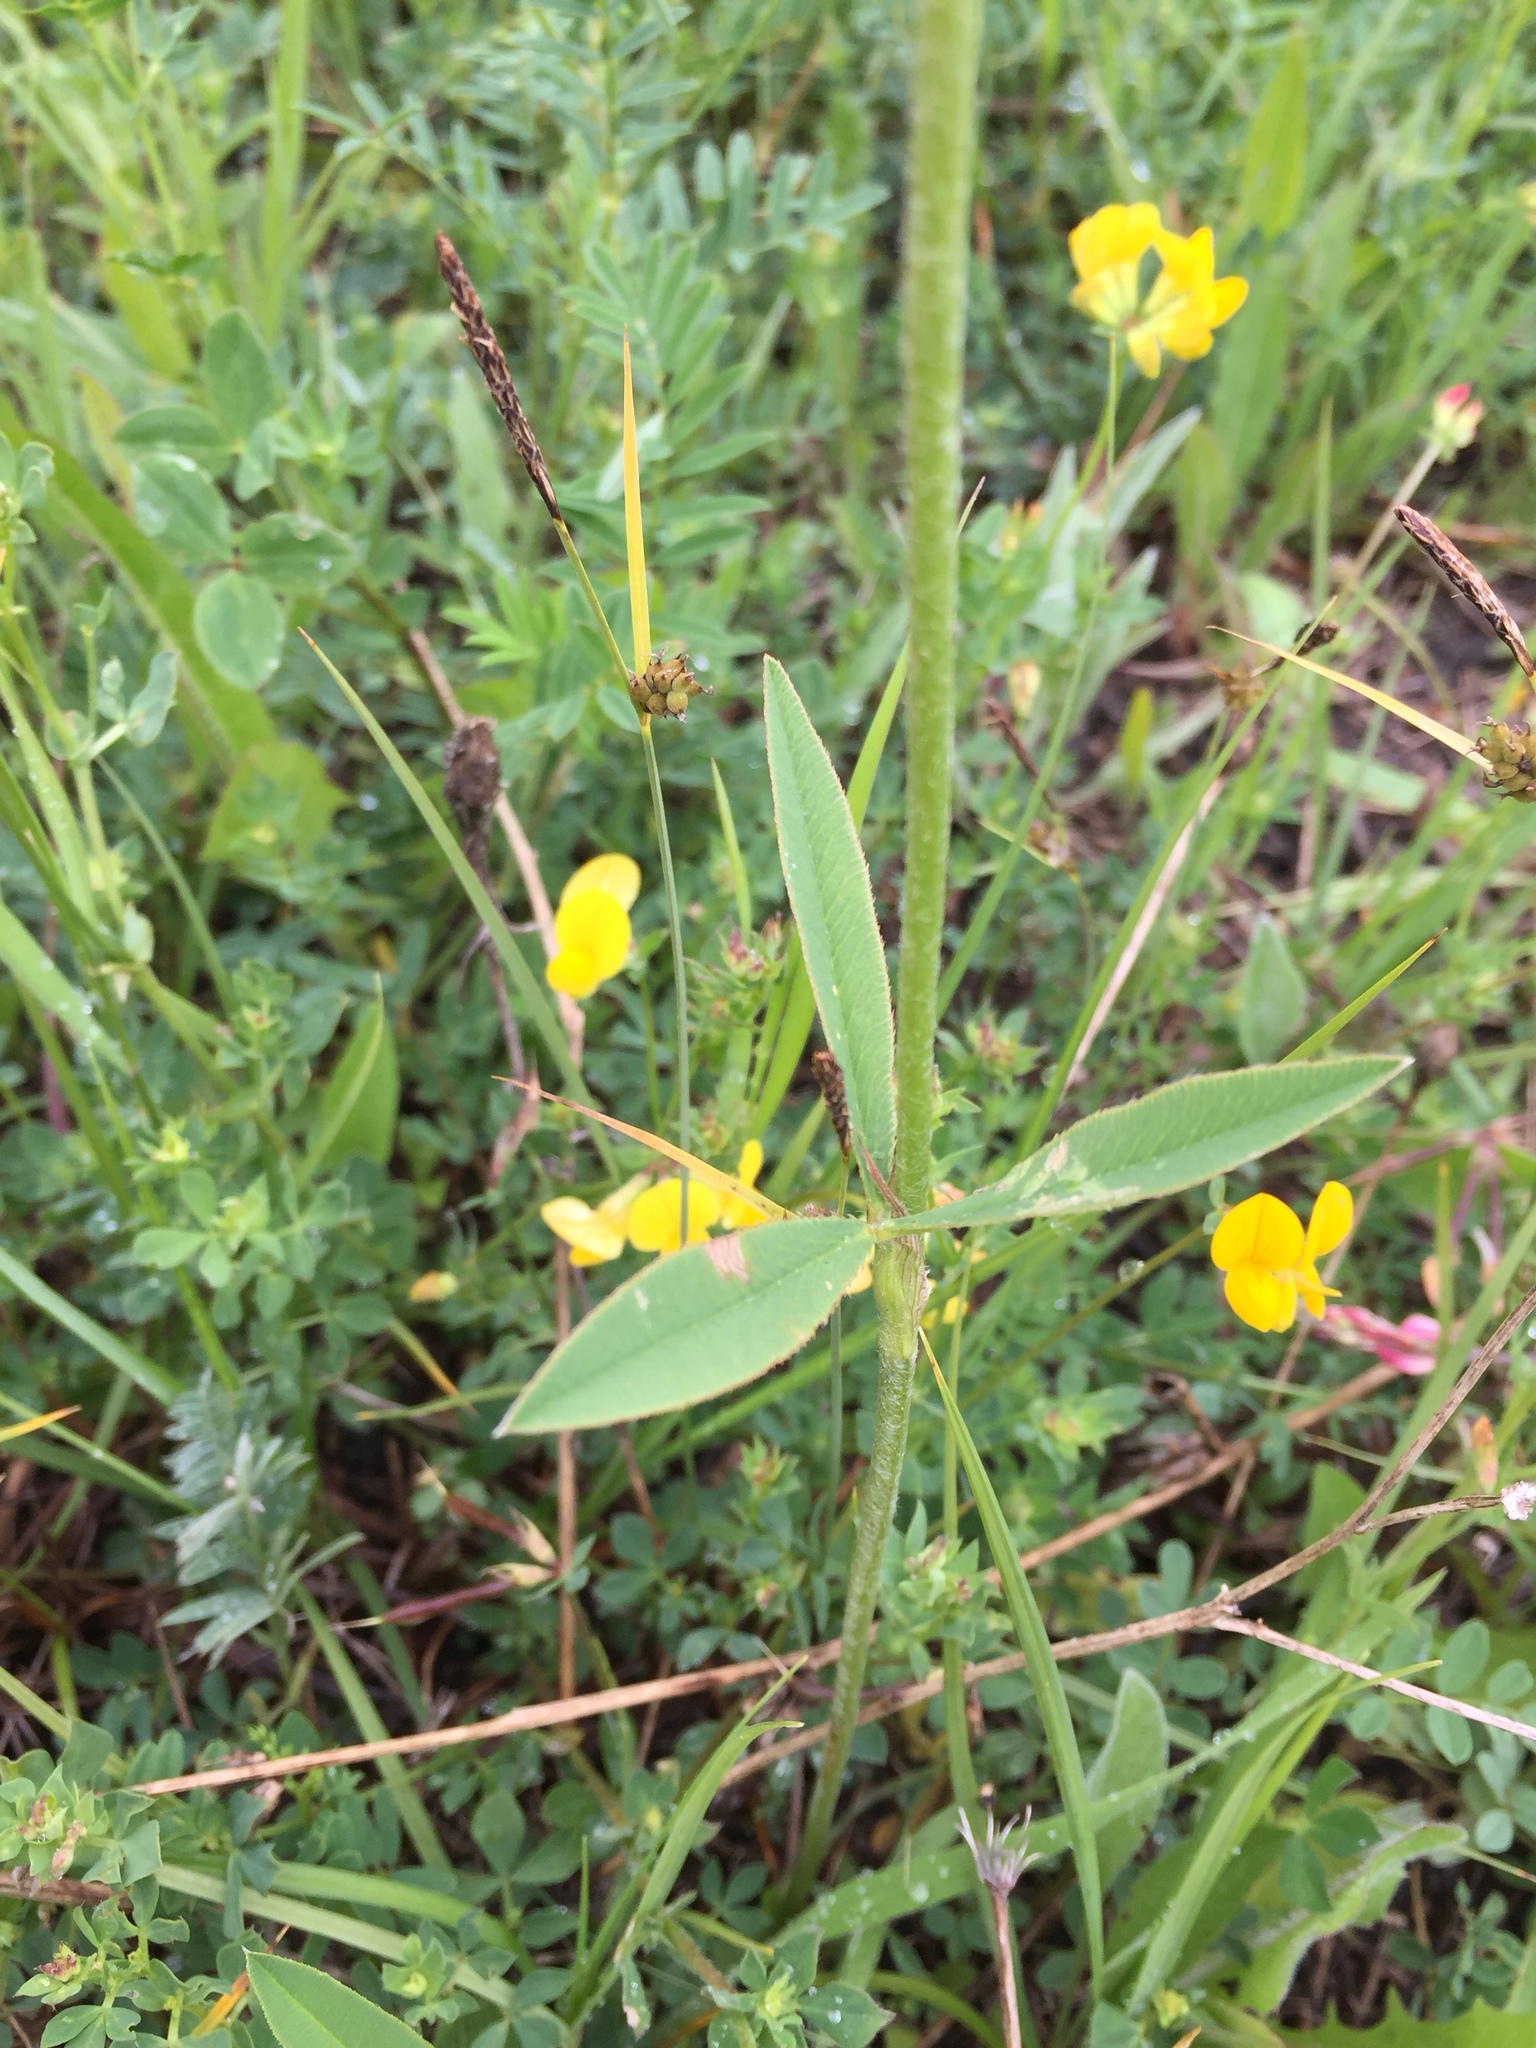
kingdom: Plantae
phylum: Tracheophyta
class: Magnoliopsida
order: Fabales
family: Fabaceae
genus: Trifolium
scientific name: Trifolium montanum
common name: Mountain clover
